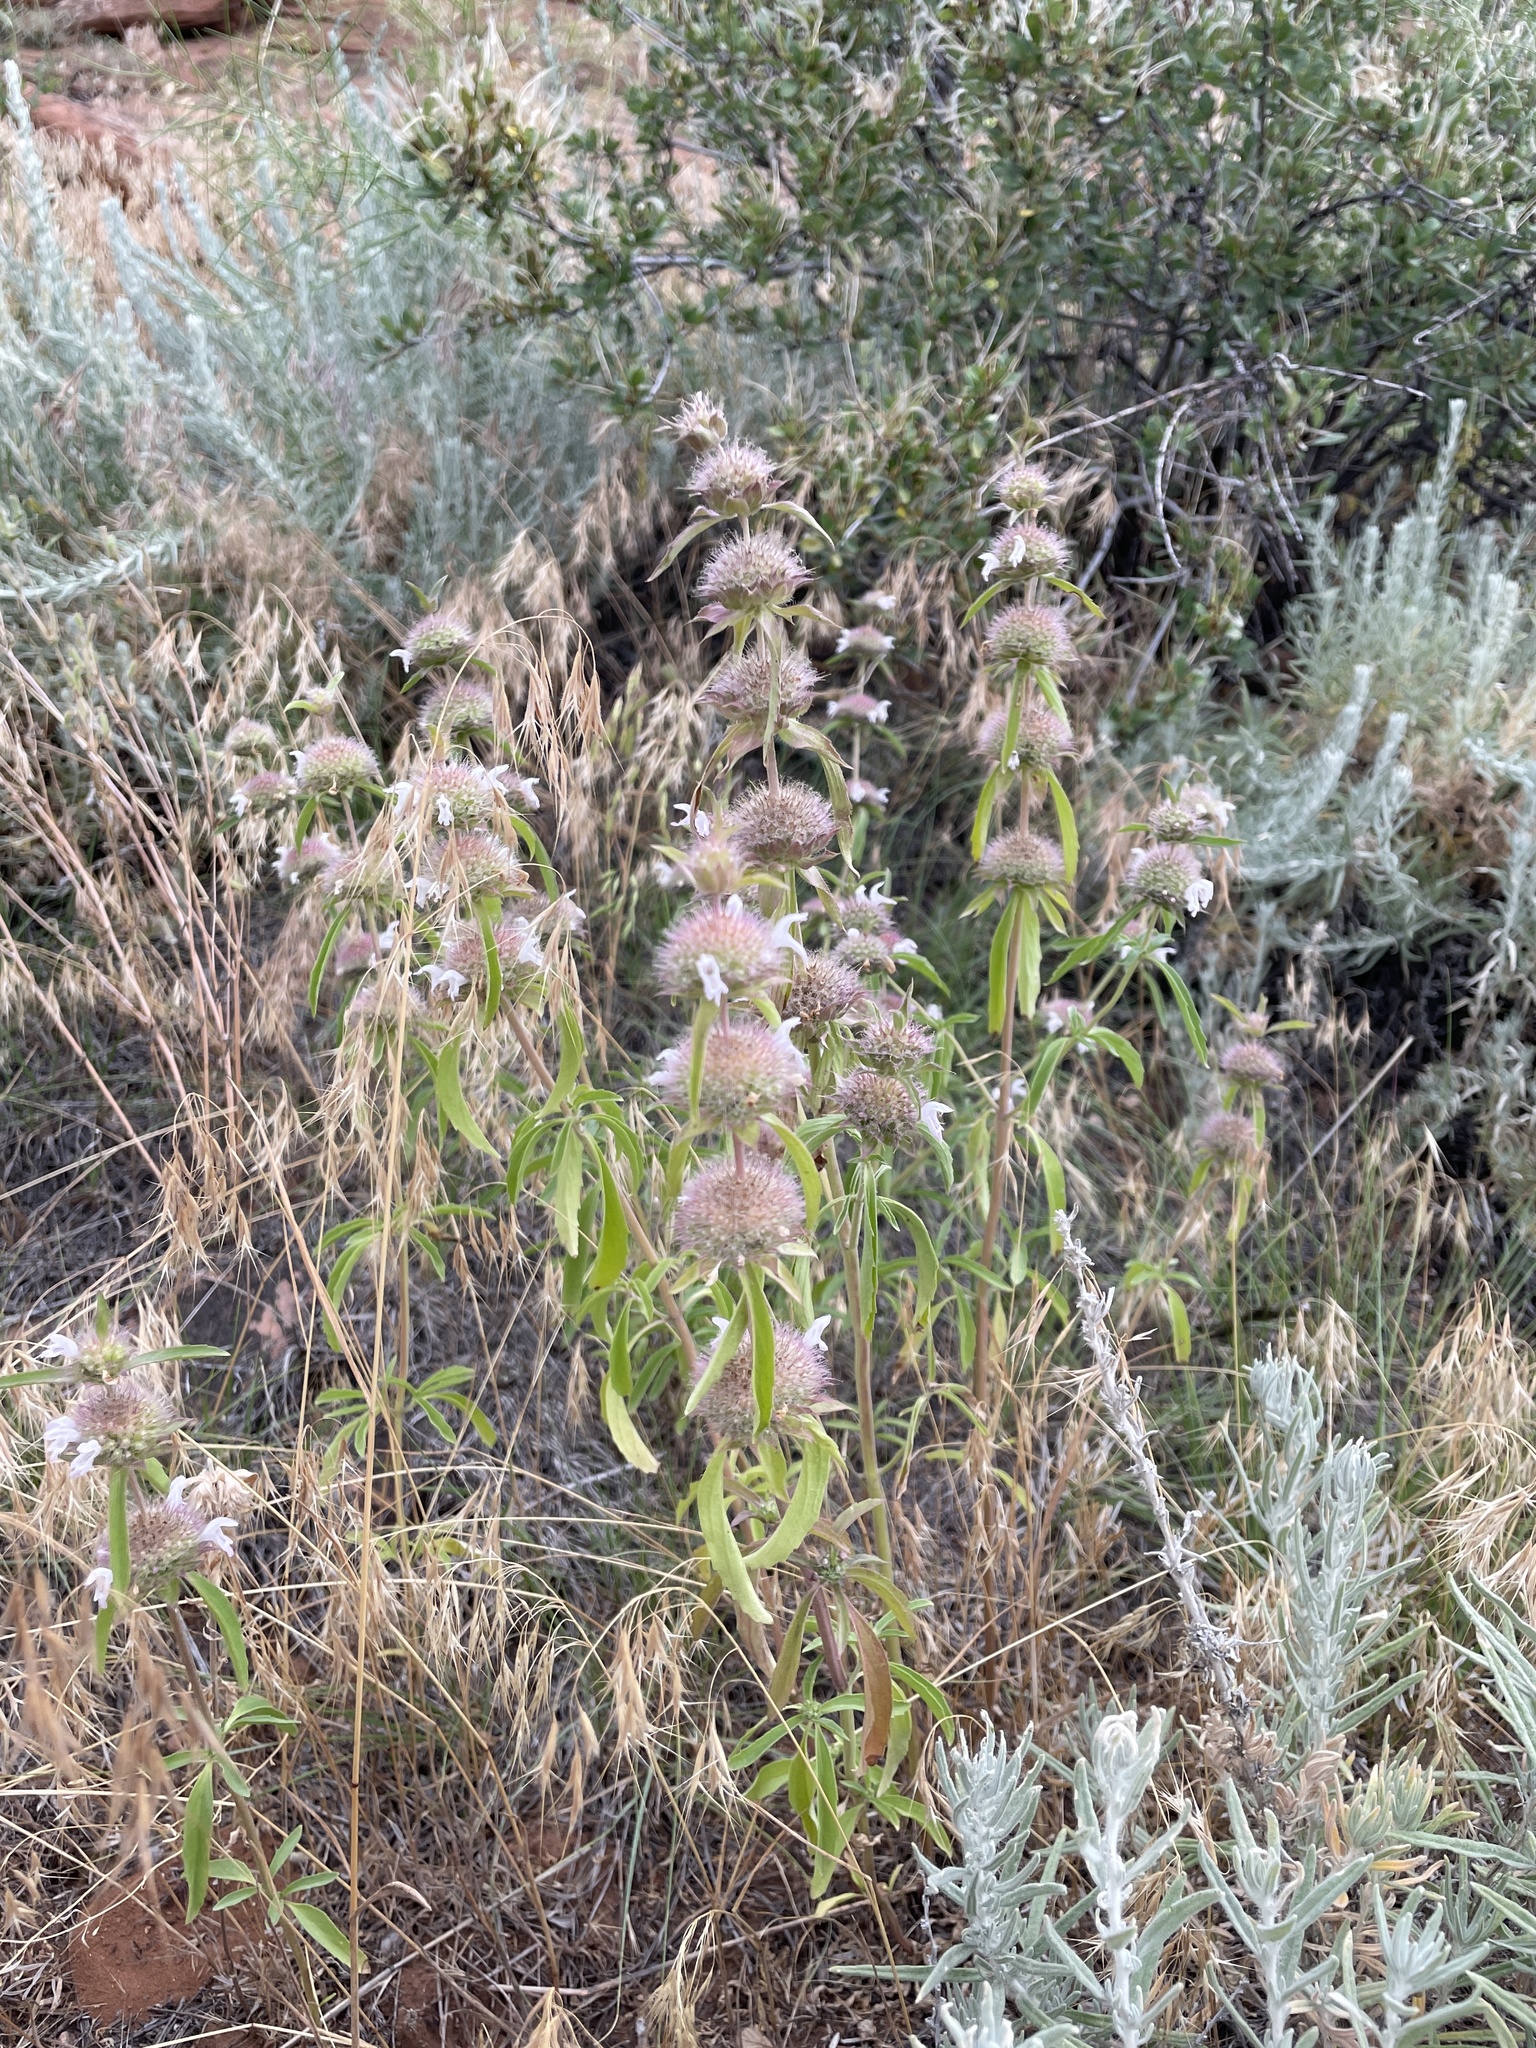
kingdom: Plantae
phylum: Tracheophyta
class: Magnoliopsida
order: Lamiales
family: Lamiaceae
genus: Monarda
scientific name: Monarda pectinata
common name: Plains beebalm
